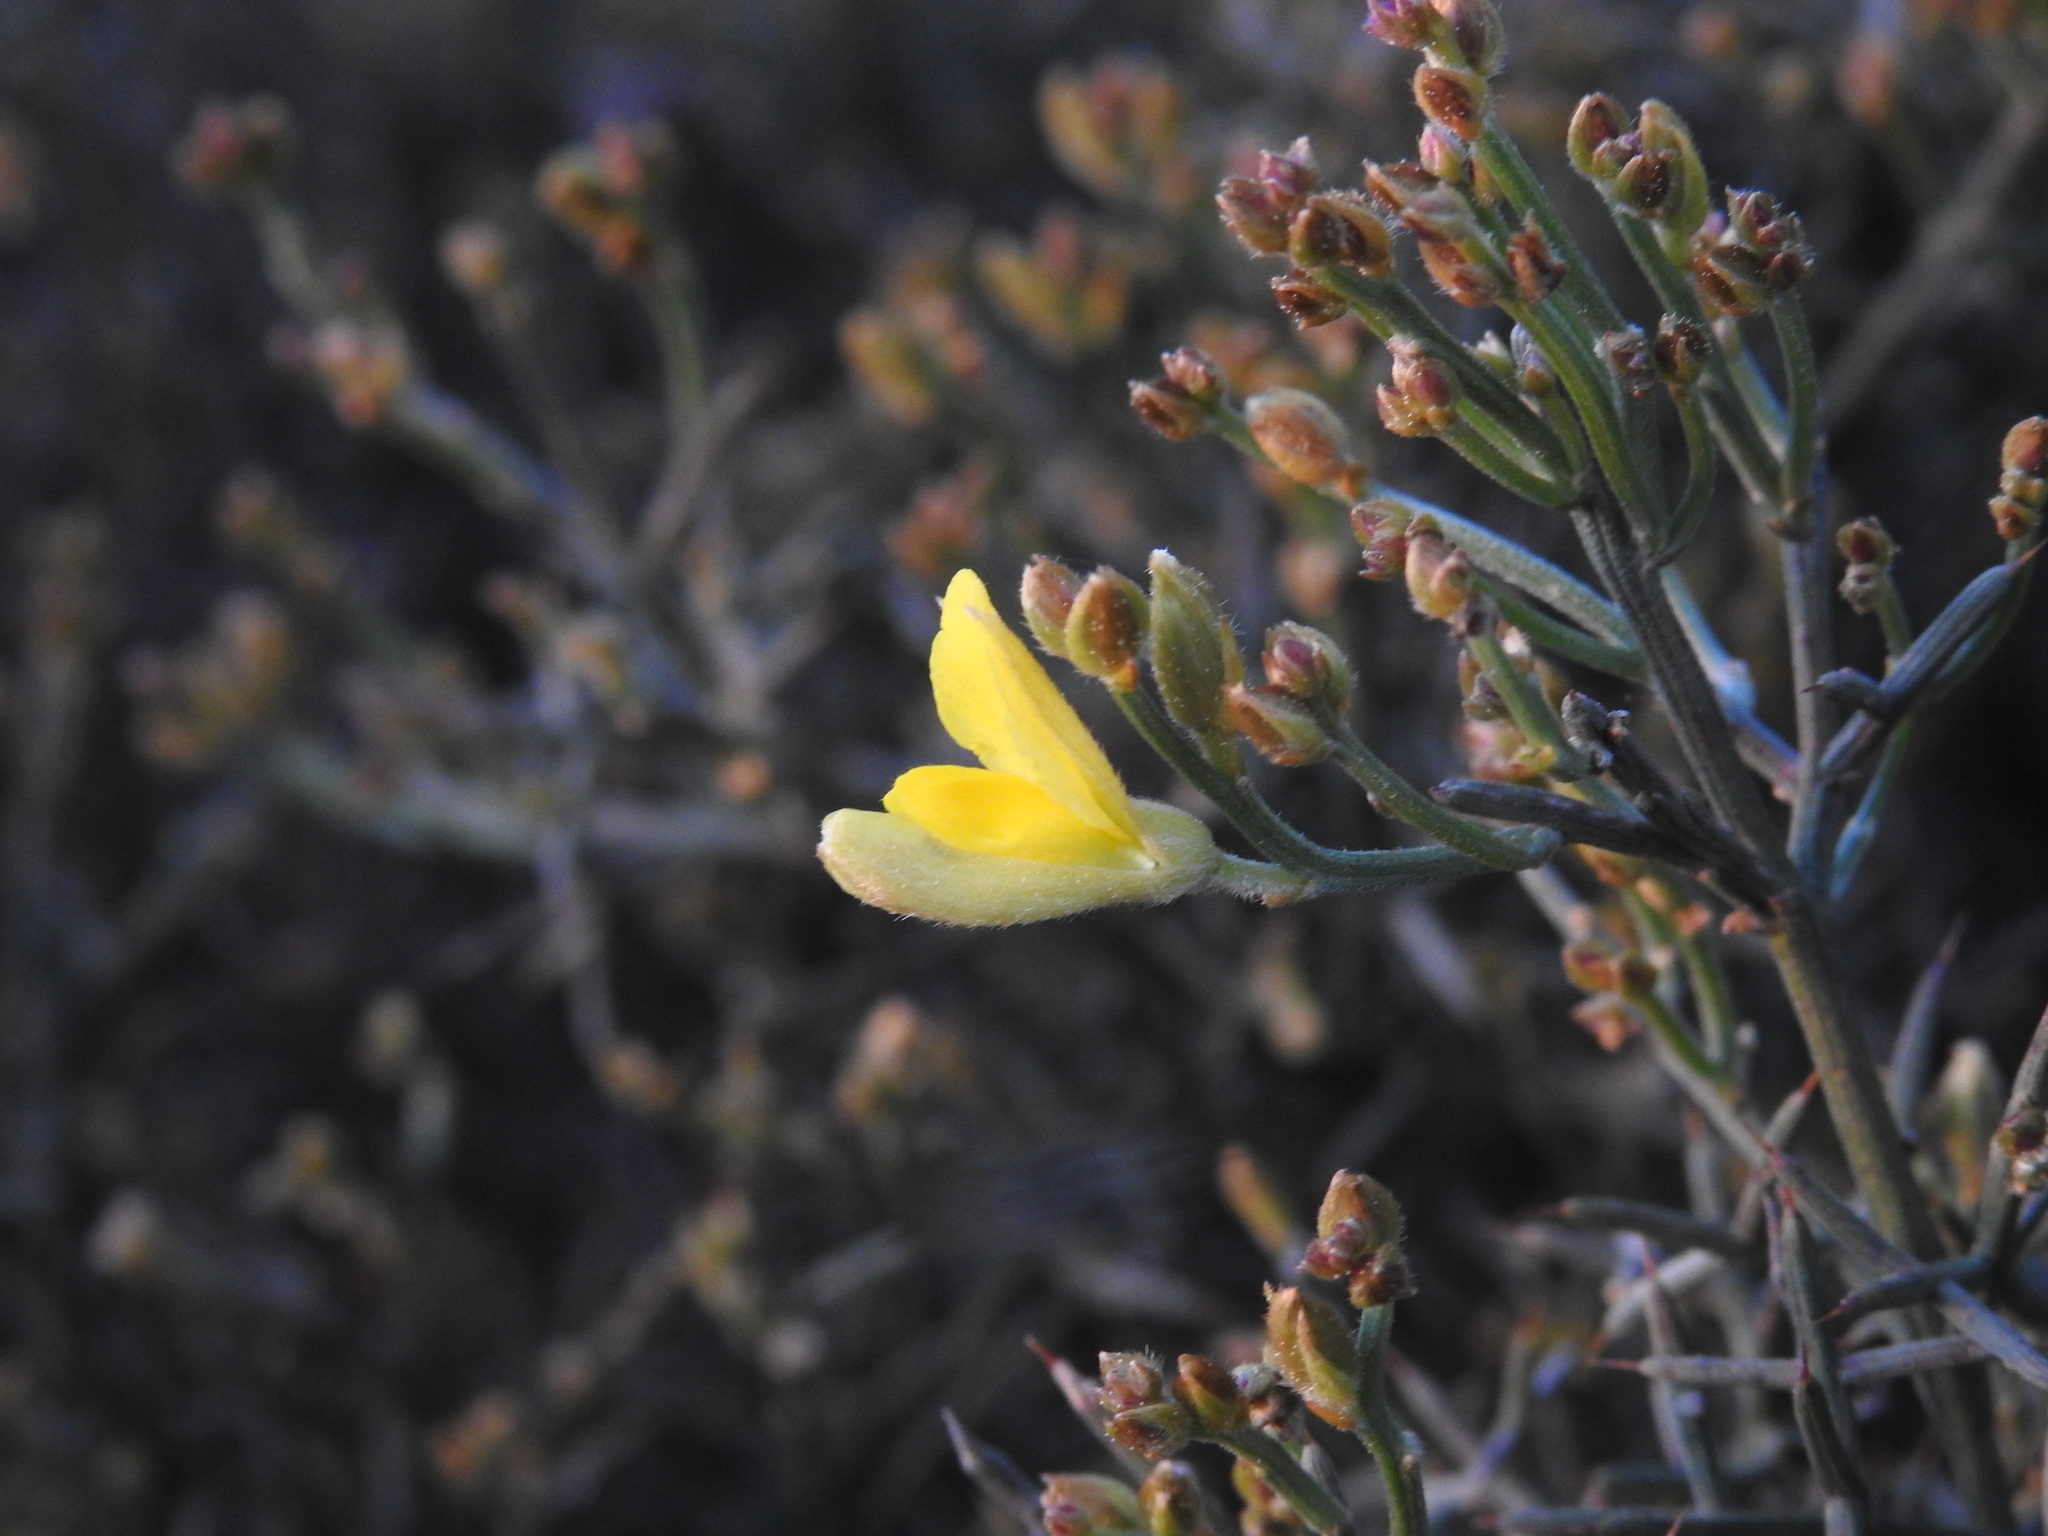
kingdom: Plantae
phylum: Tracheophyta
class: Magnoliopsida
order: Fabales
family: Fabaceae
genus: Stauracanthus
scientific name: Stauracanthus genistoides
